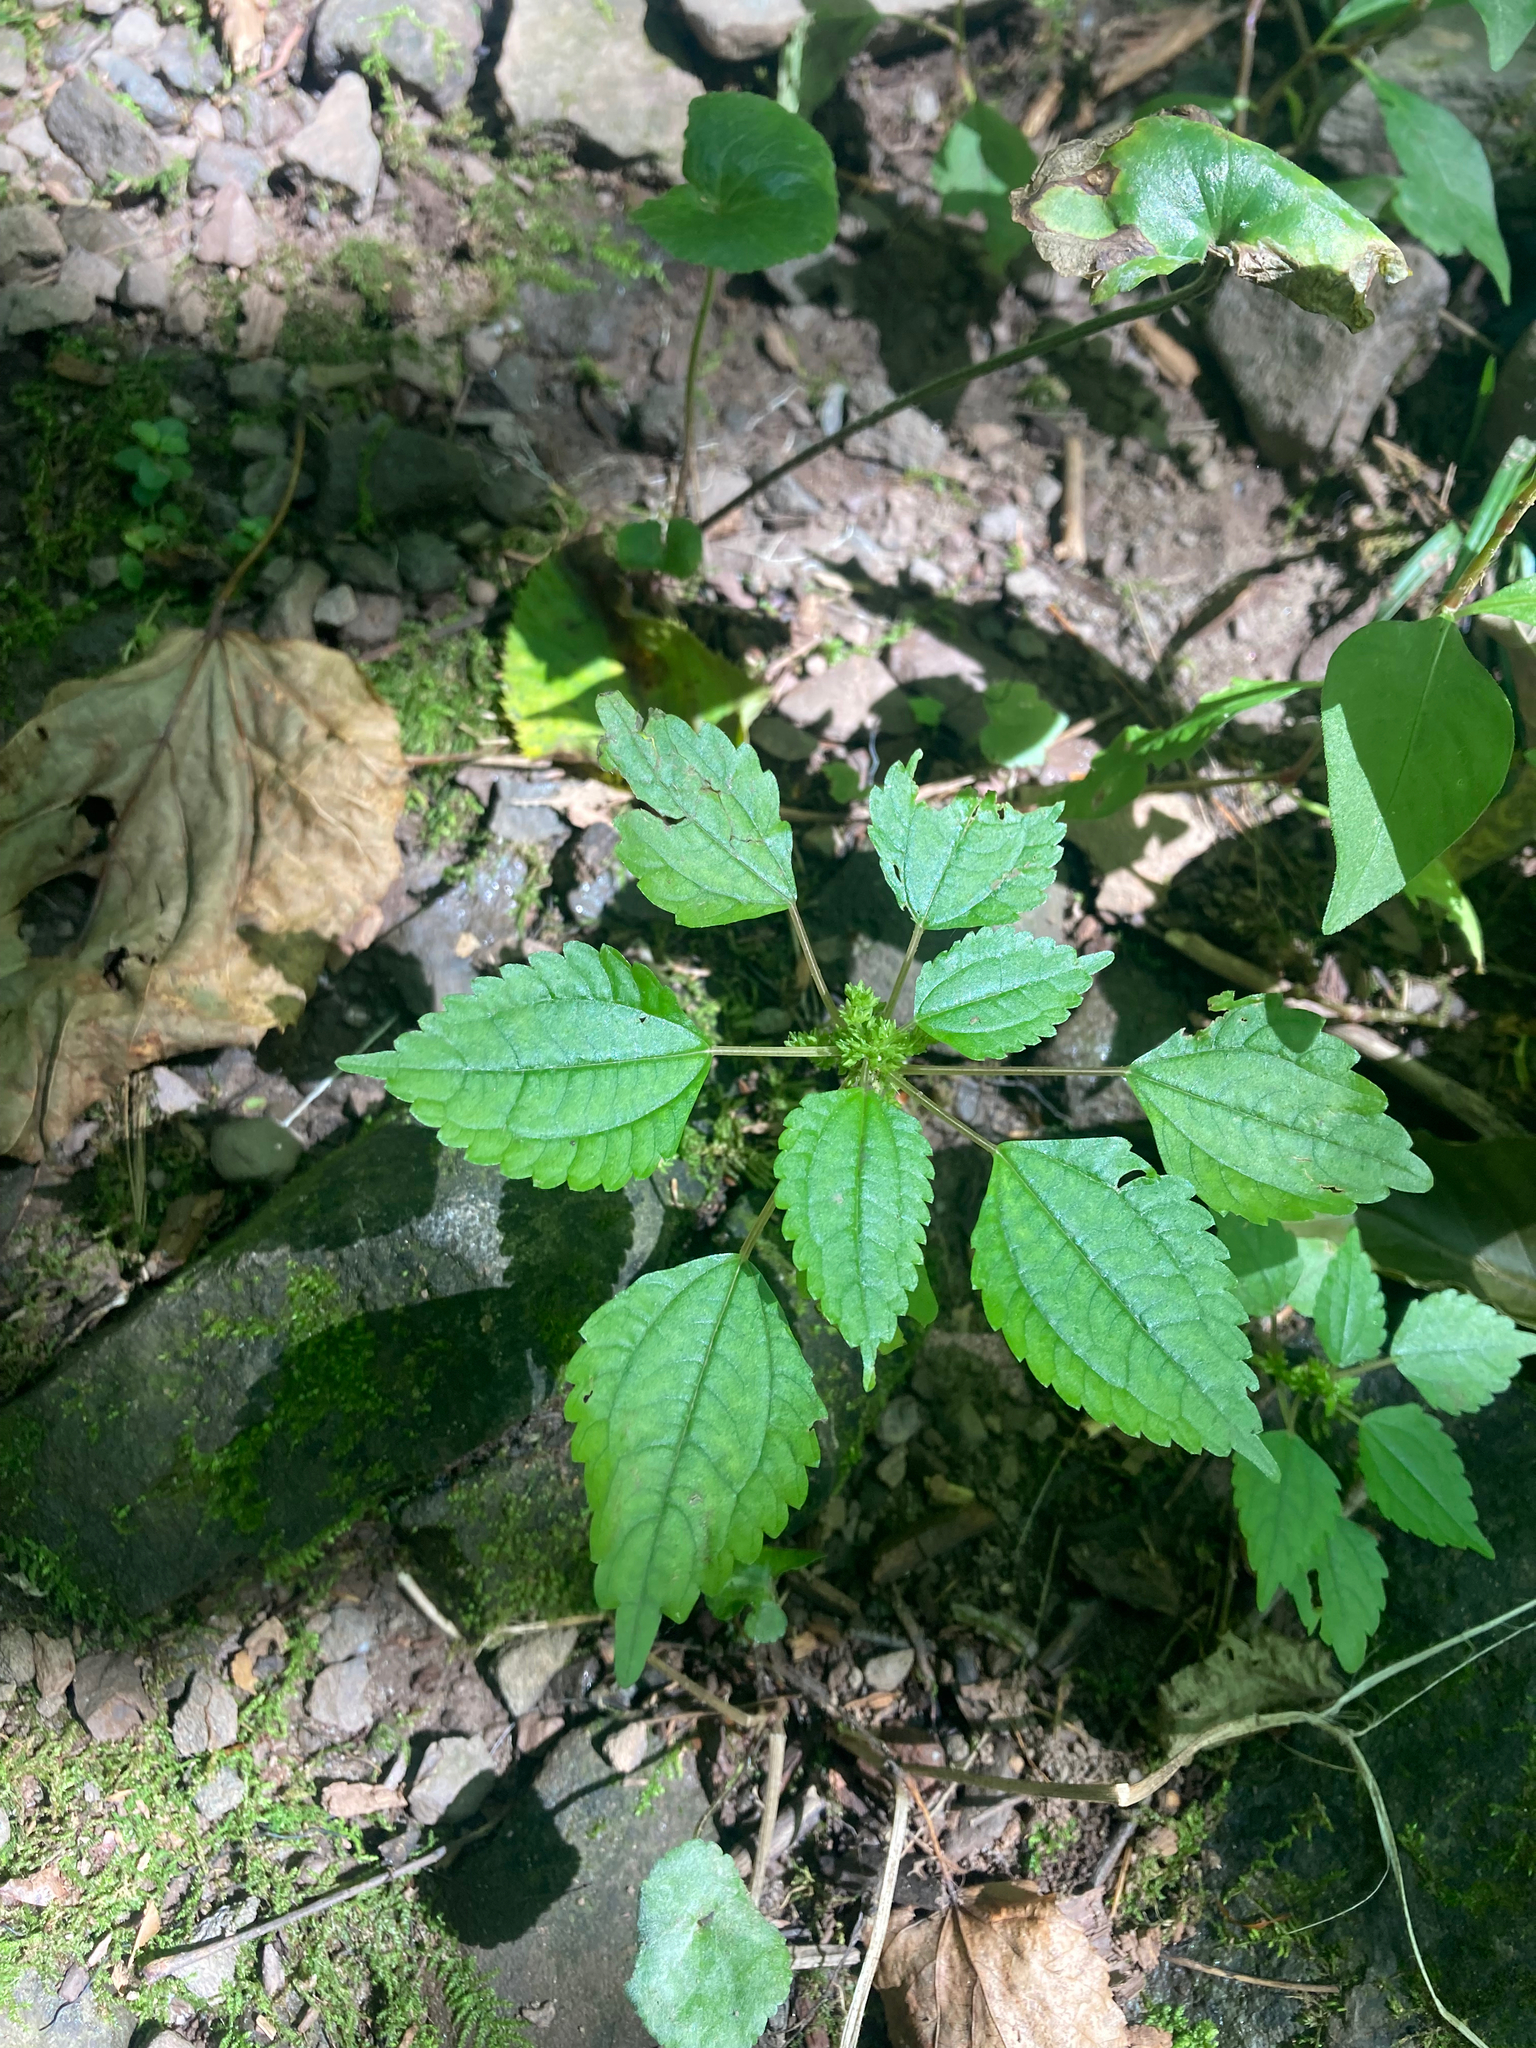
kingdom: Plantae
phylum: Tracheophyta
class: Magnoliopsida
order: Rosales
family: Urticaceae
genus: Pilea
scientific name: Pilea pumila
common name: Clearweed
